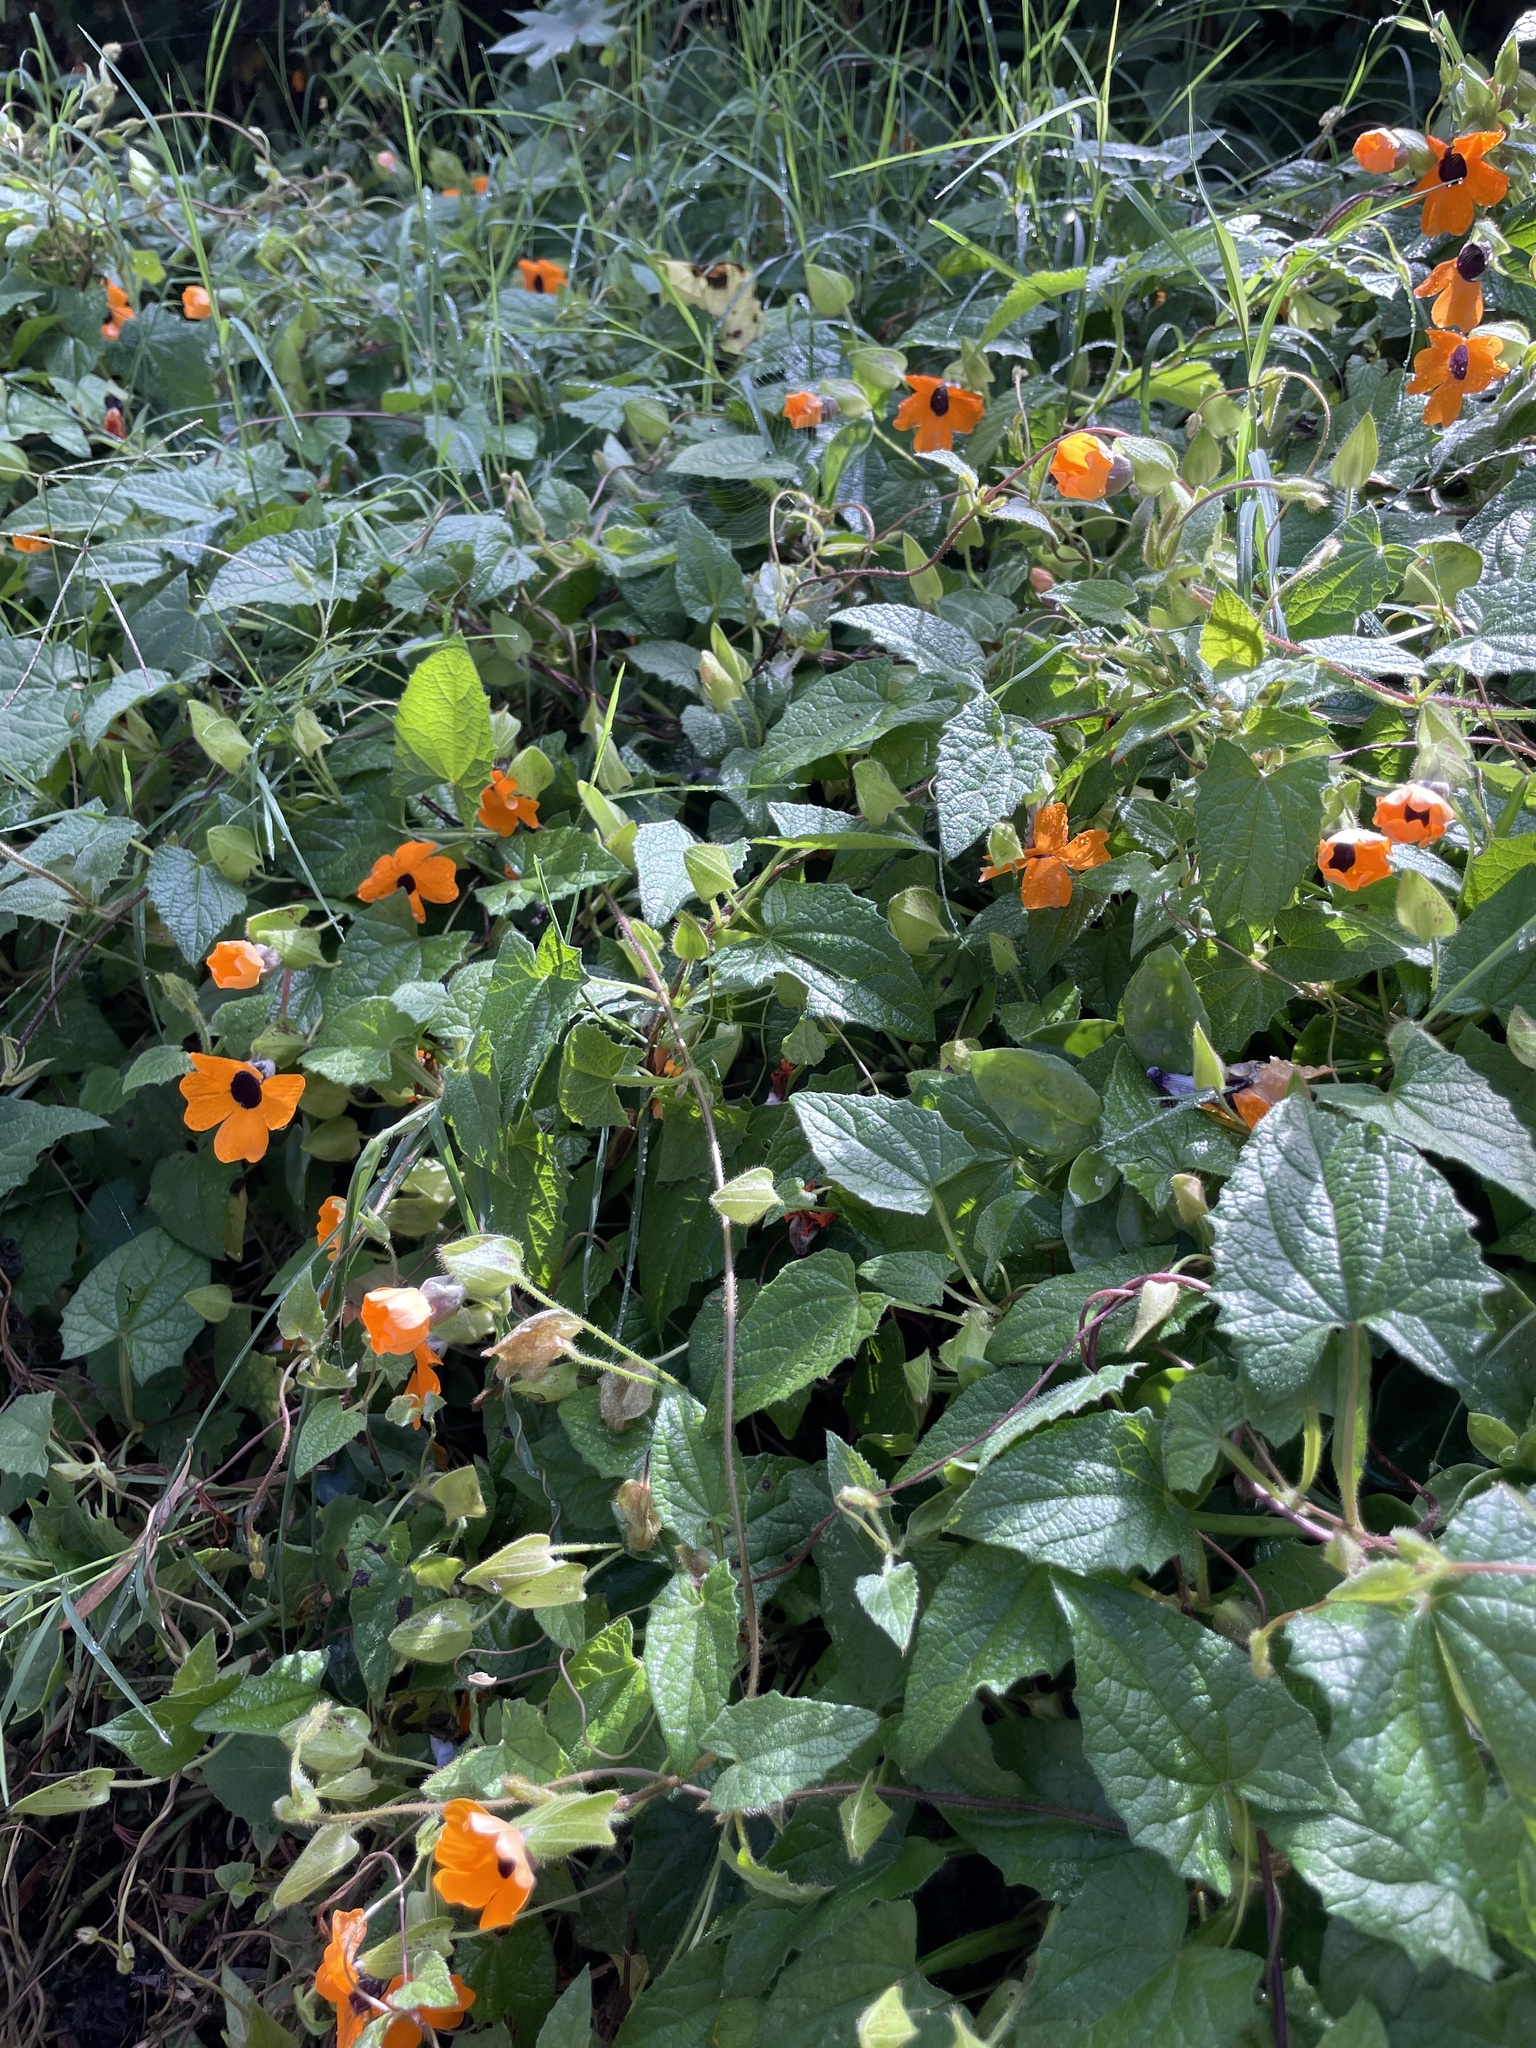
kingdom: Plantae
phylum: Tracheophyta
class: Magnoliopsida
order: Lamiales
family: Acanthaceae
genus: Thunbergia
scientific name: Thunbergia alata
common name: Blackeyed susan vine
